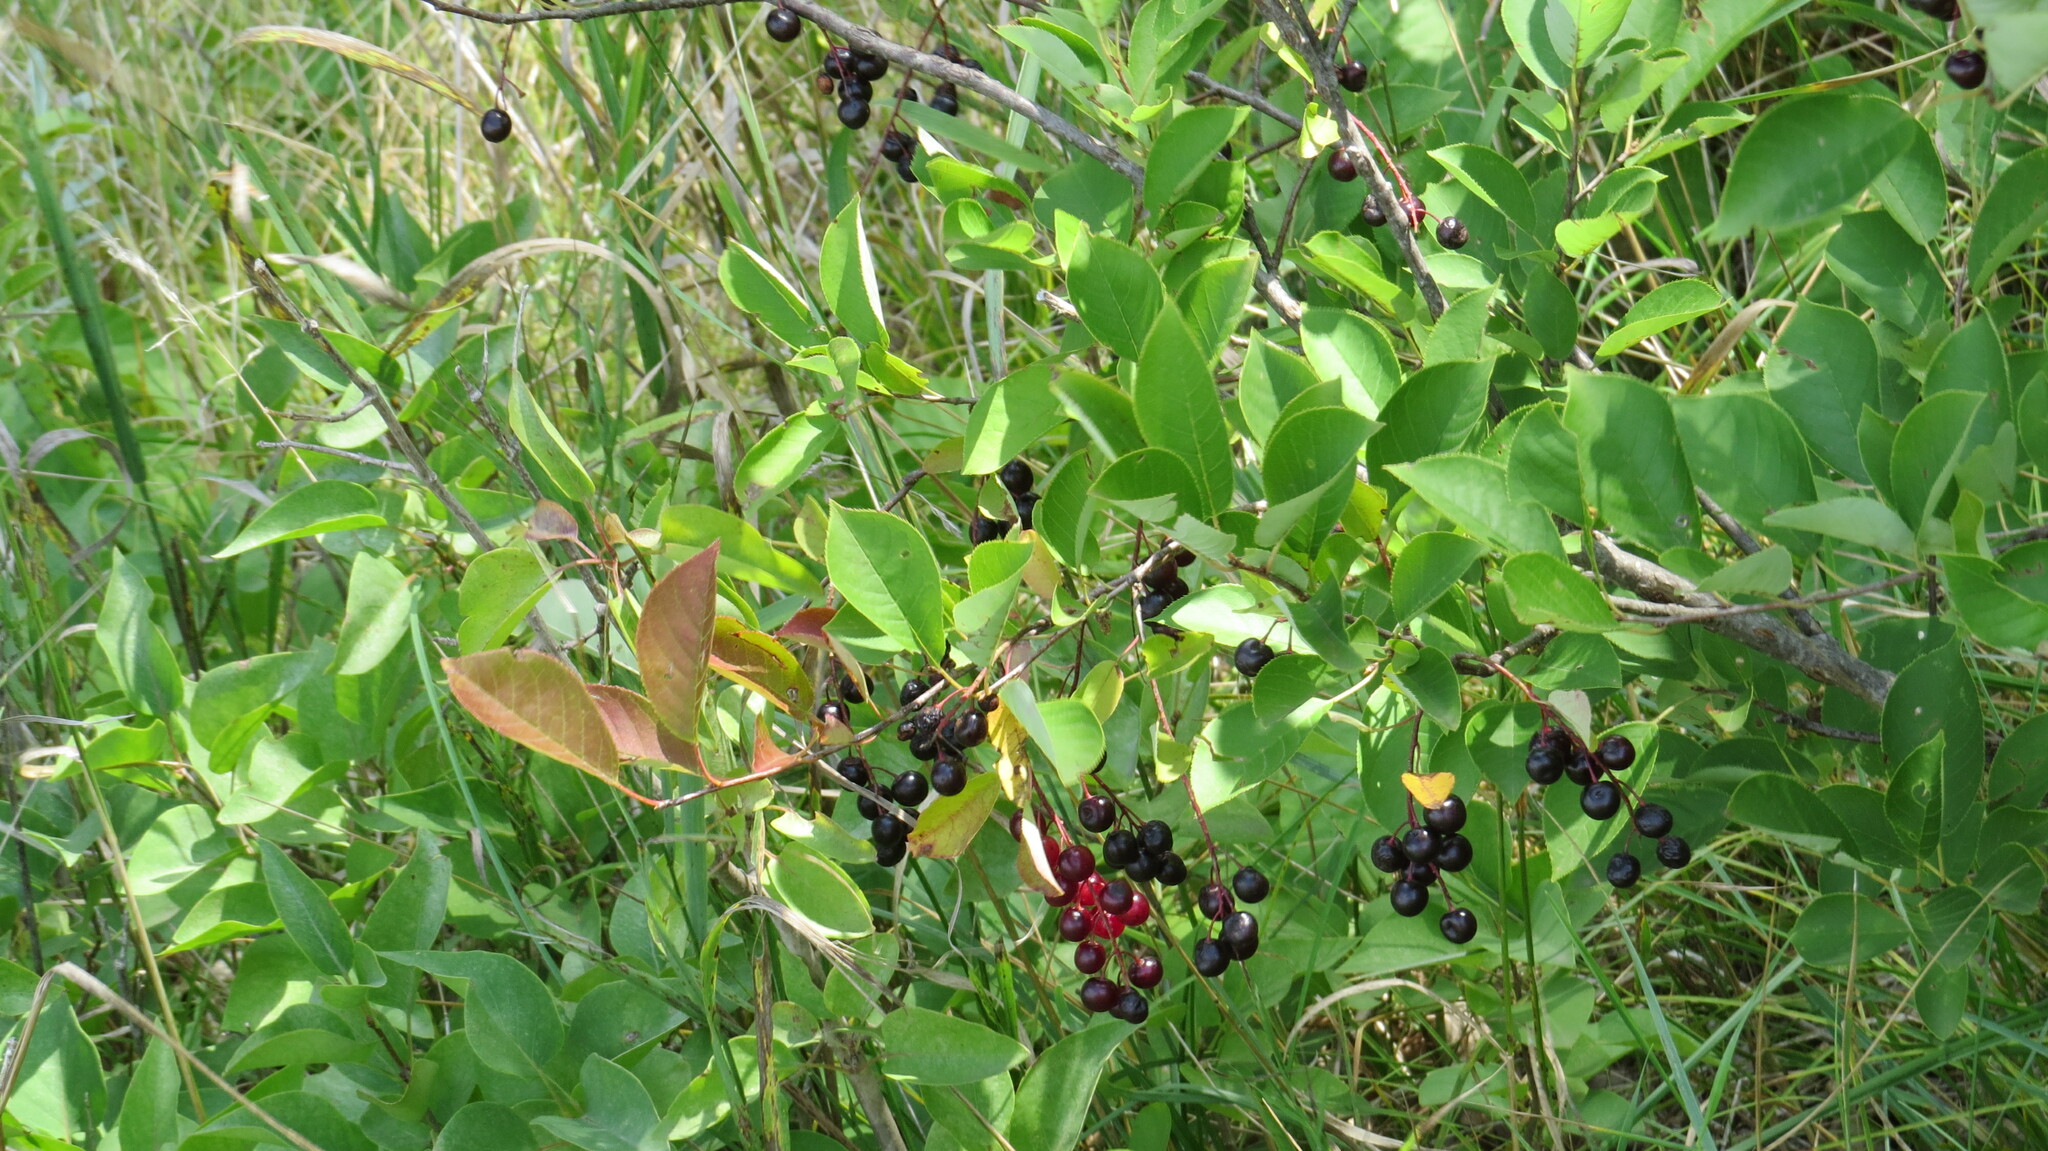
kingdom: Plantae
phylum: Tracheophyta
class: Magnoliopsida
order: Rosales
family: Rosaceae
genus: Prunus
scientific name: Prunus virginiana
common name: Chokecherry
